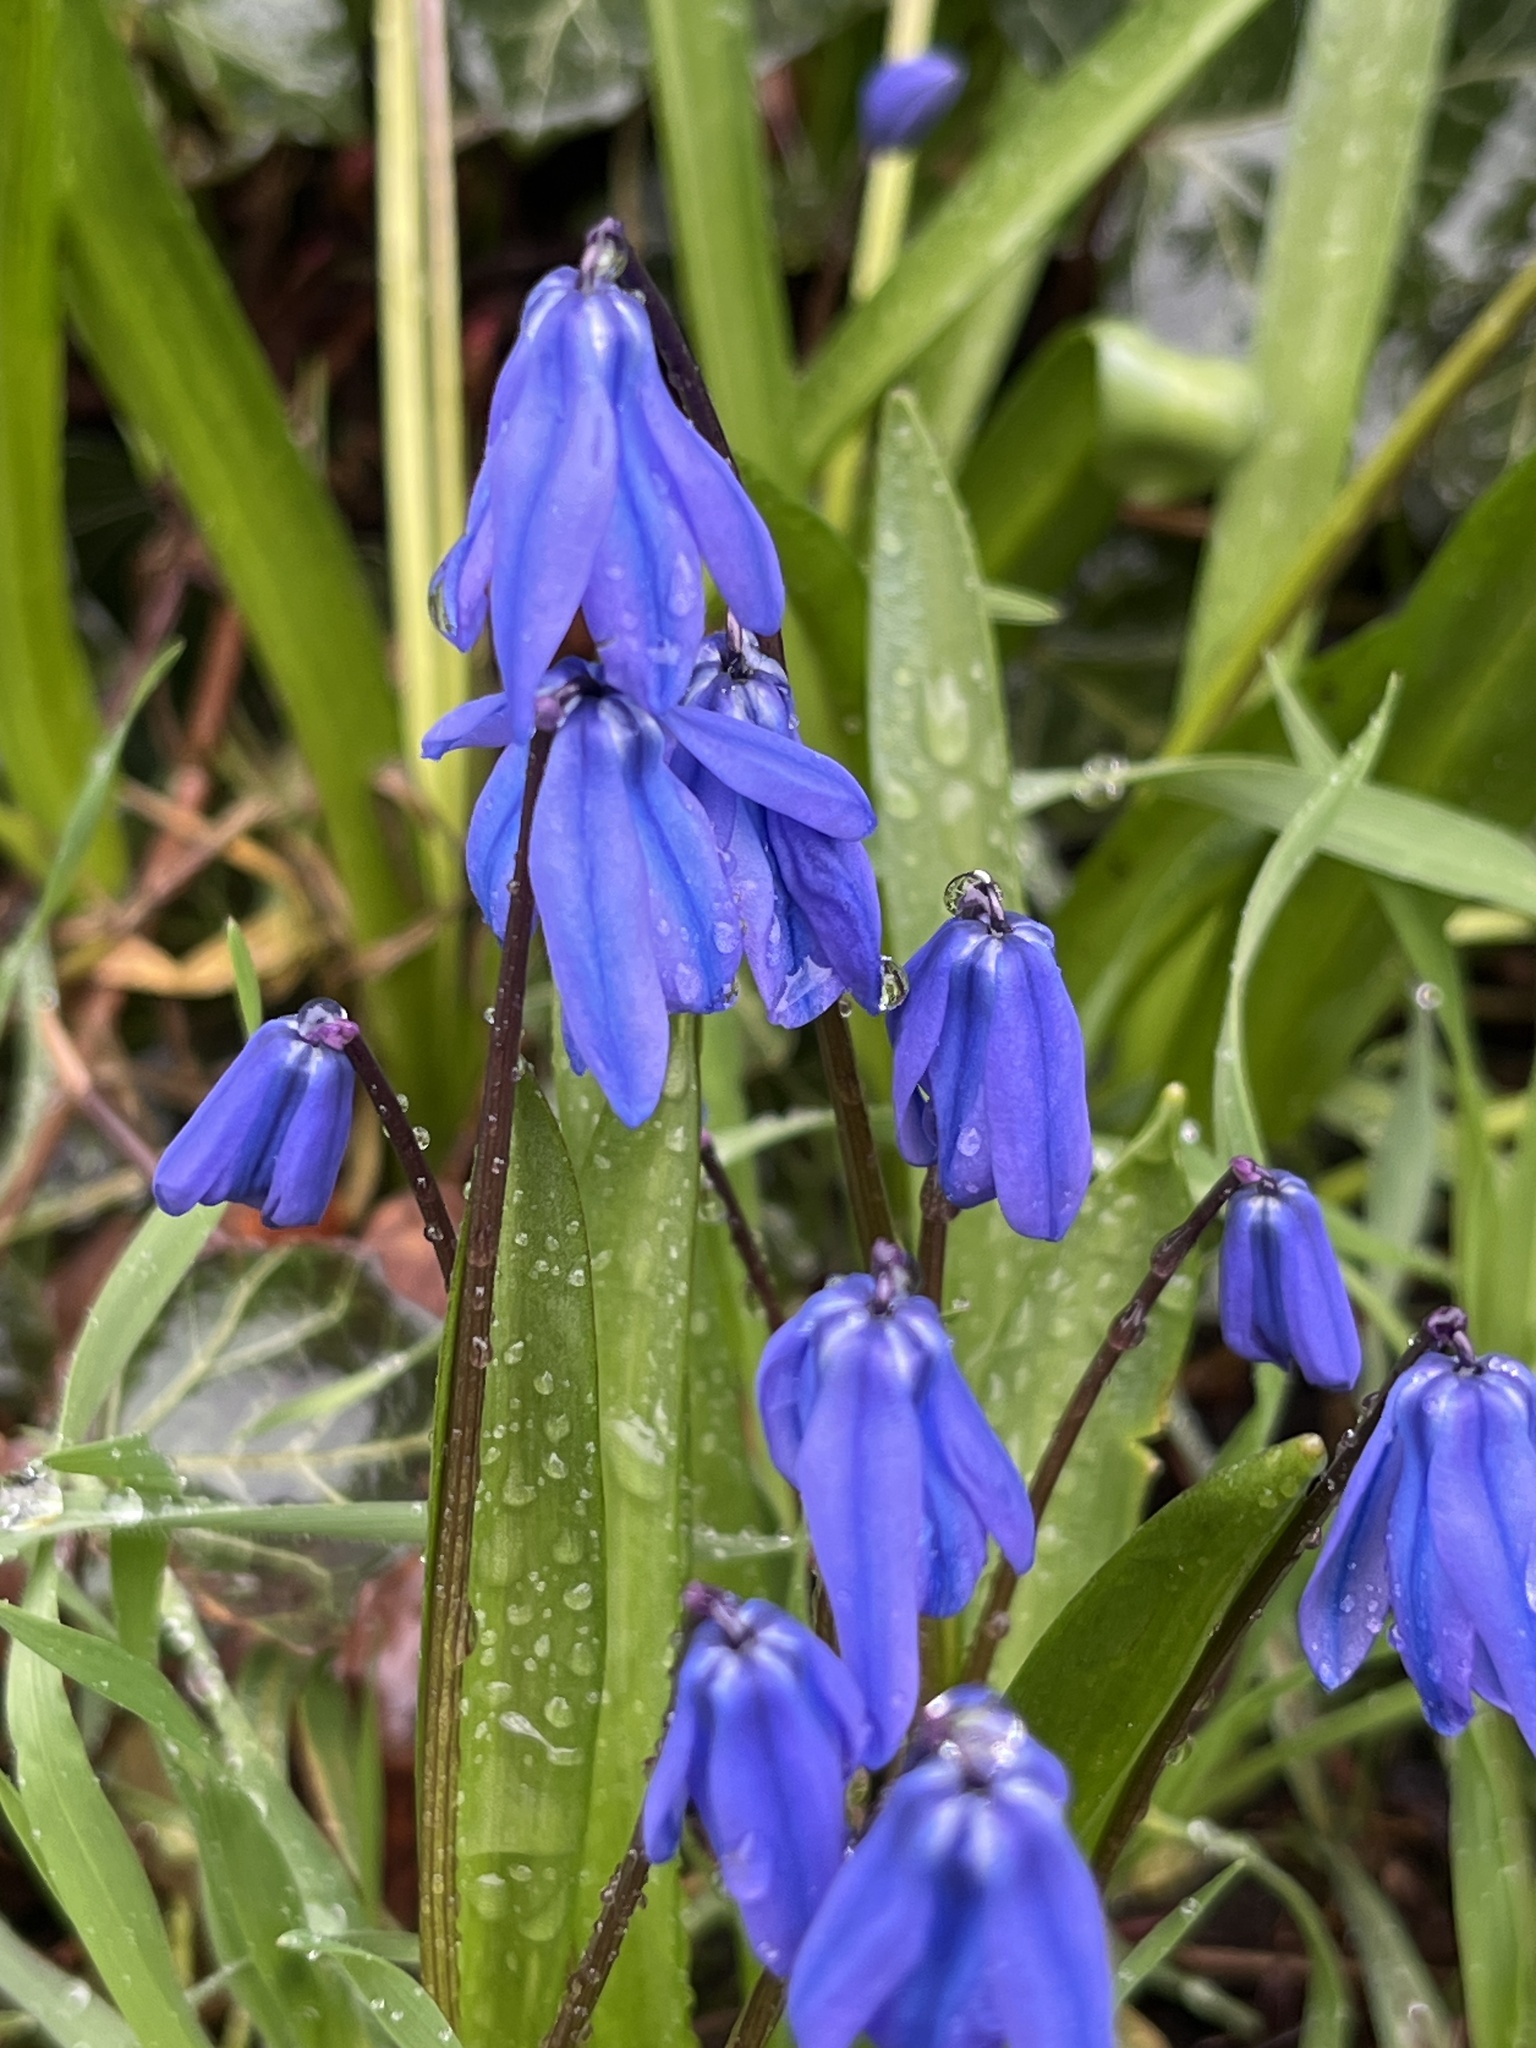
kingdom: Plantae
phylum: Tracheophyta
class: Liliopsida
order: Asparagales
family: Asparagaceae
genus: Scilla
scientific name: Scilla siberica
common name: Siberian squill
